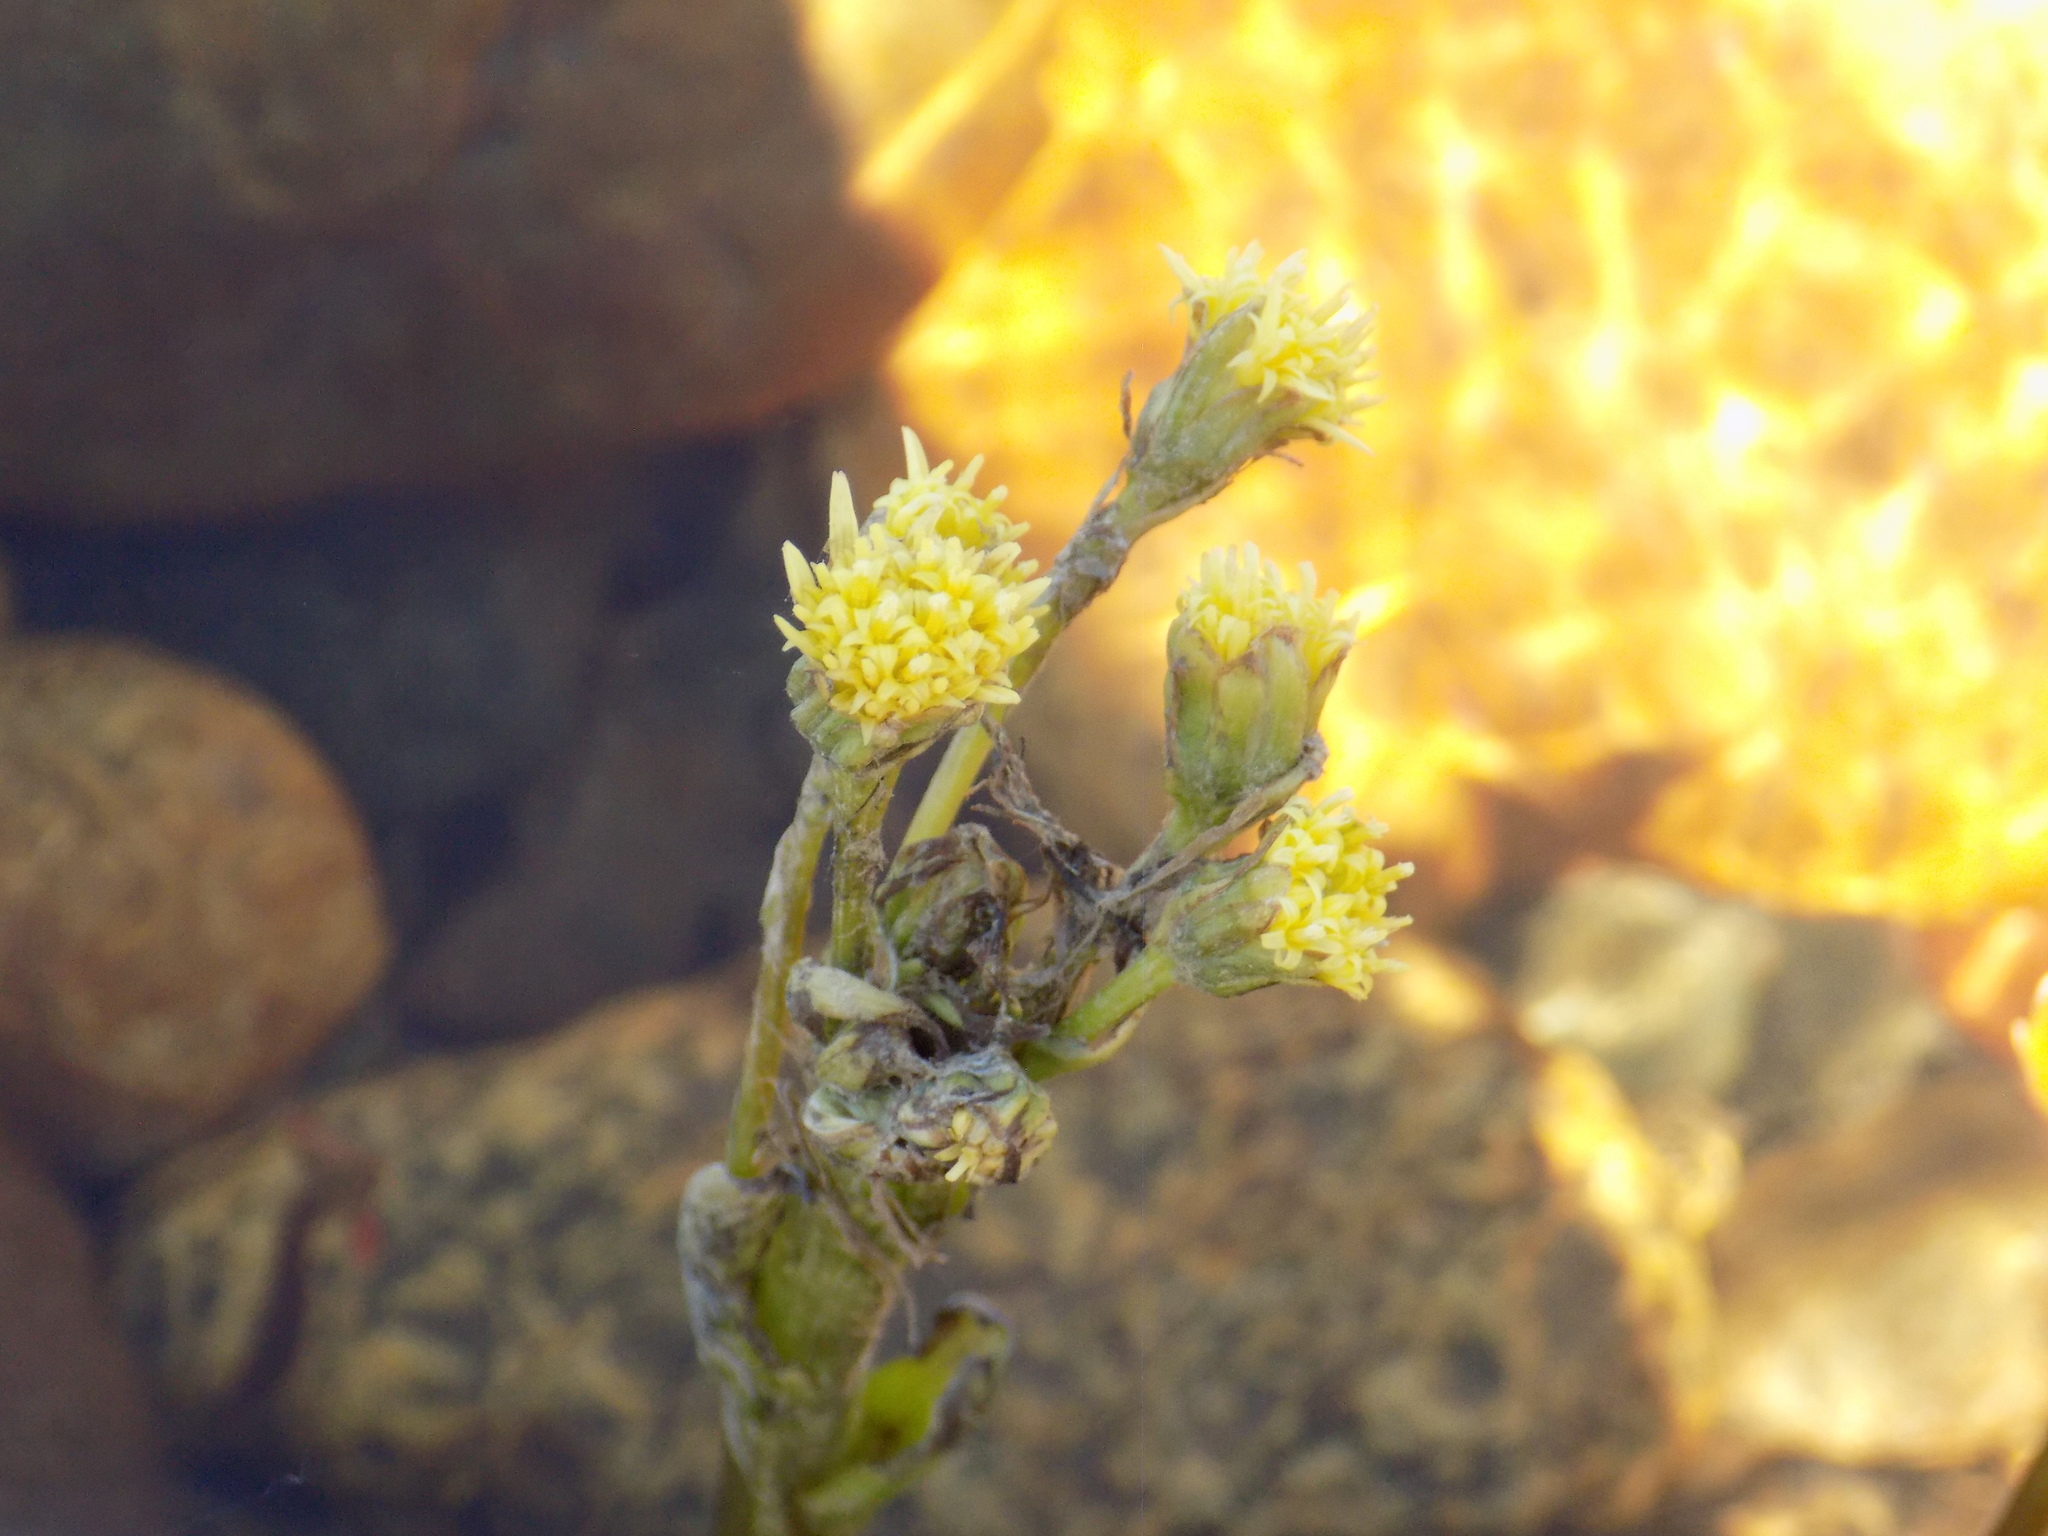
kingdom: Plantae
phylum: Tracheophyta
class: Magnoliopsida
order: Asterales
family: Asteraceae
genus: Petasites
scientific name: Petasites radiatus
